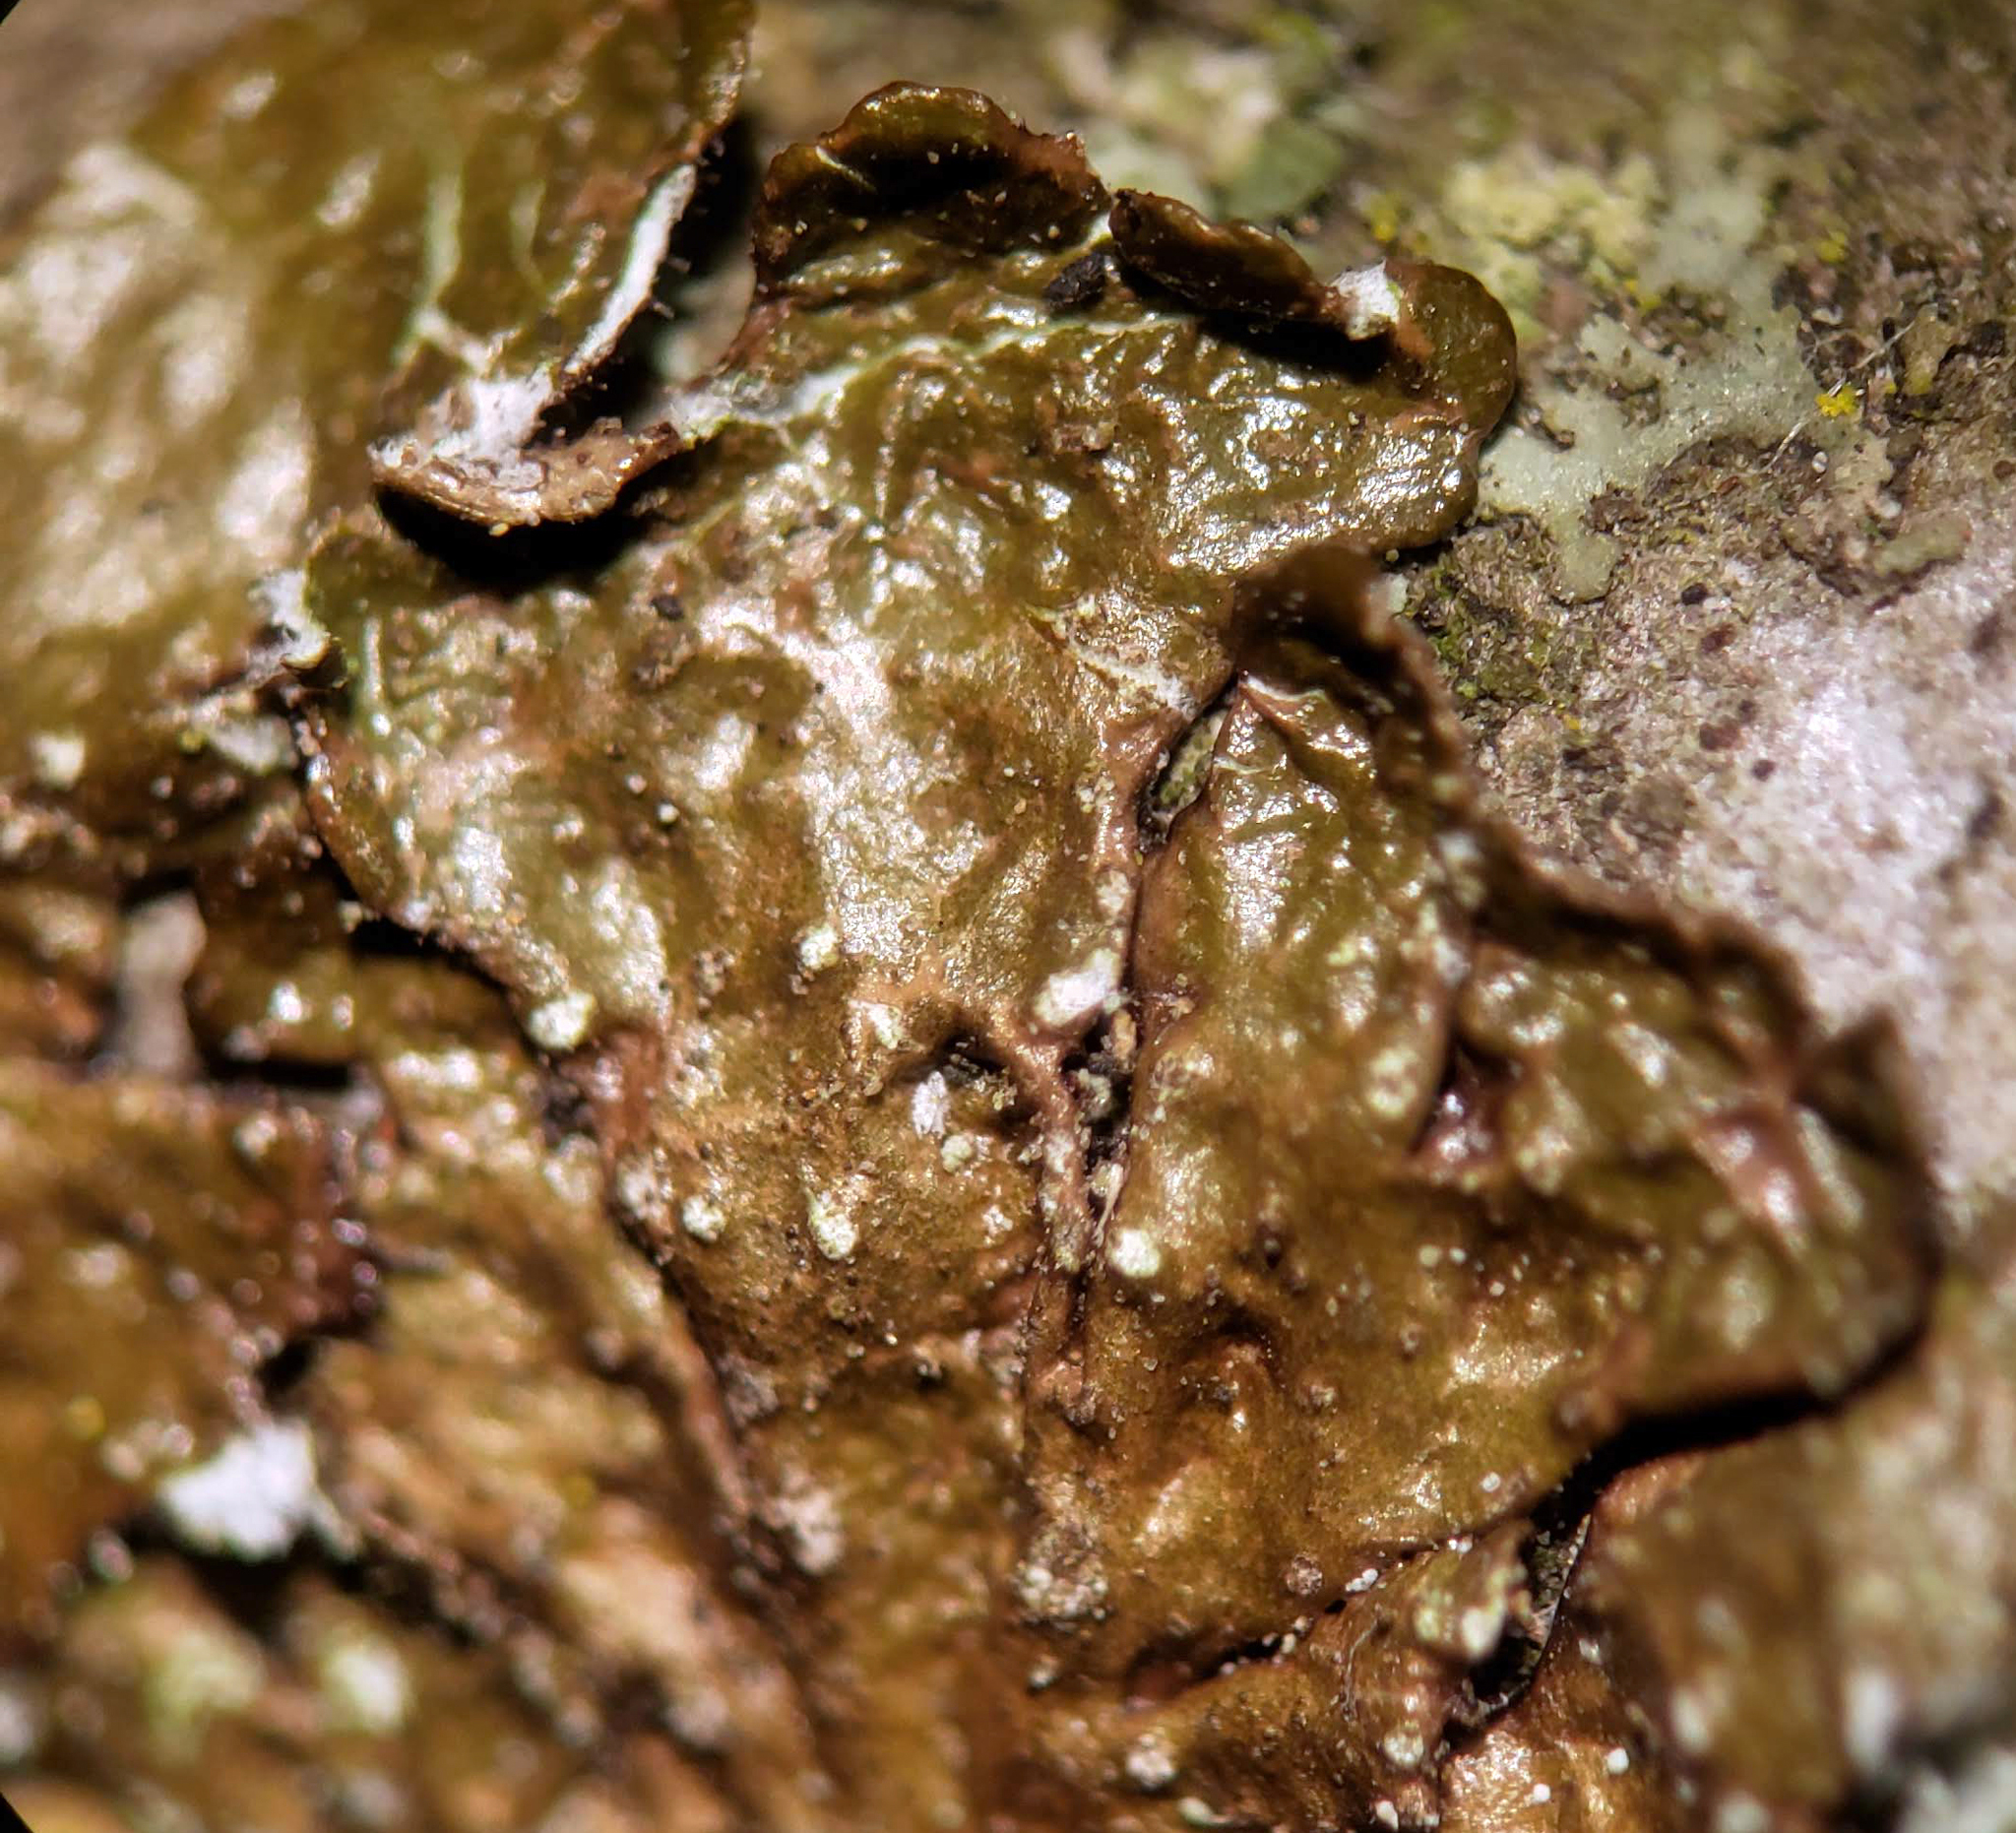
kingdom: Fungi
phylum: Ascomycota
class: Lecanoromycetes
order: Lecanorales
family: Parmeliaceae
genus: Melanelixia
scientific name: Melanelixia subaurifera
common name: Abraded camouflage lichen
